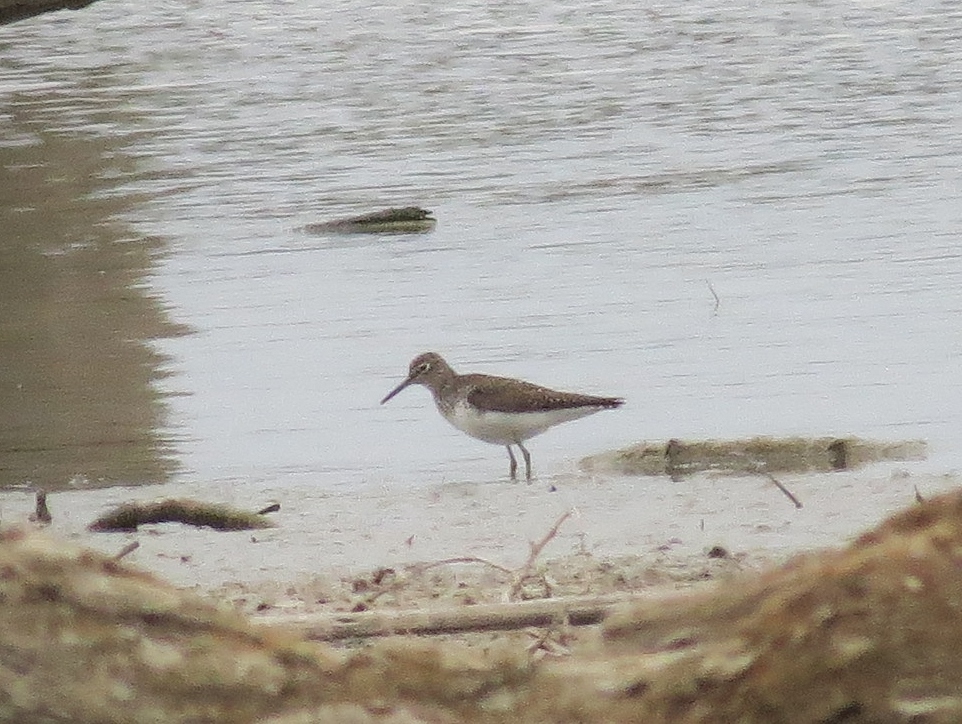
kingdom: Animalia
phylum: Chordata
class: Aves
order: Charadriiformes
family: Scolopacidae
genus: Tringa
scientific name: Tringa solitaria
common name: Solitary sandpiper
